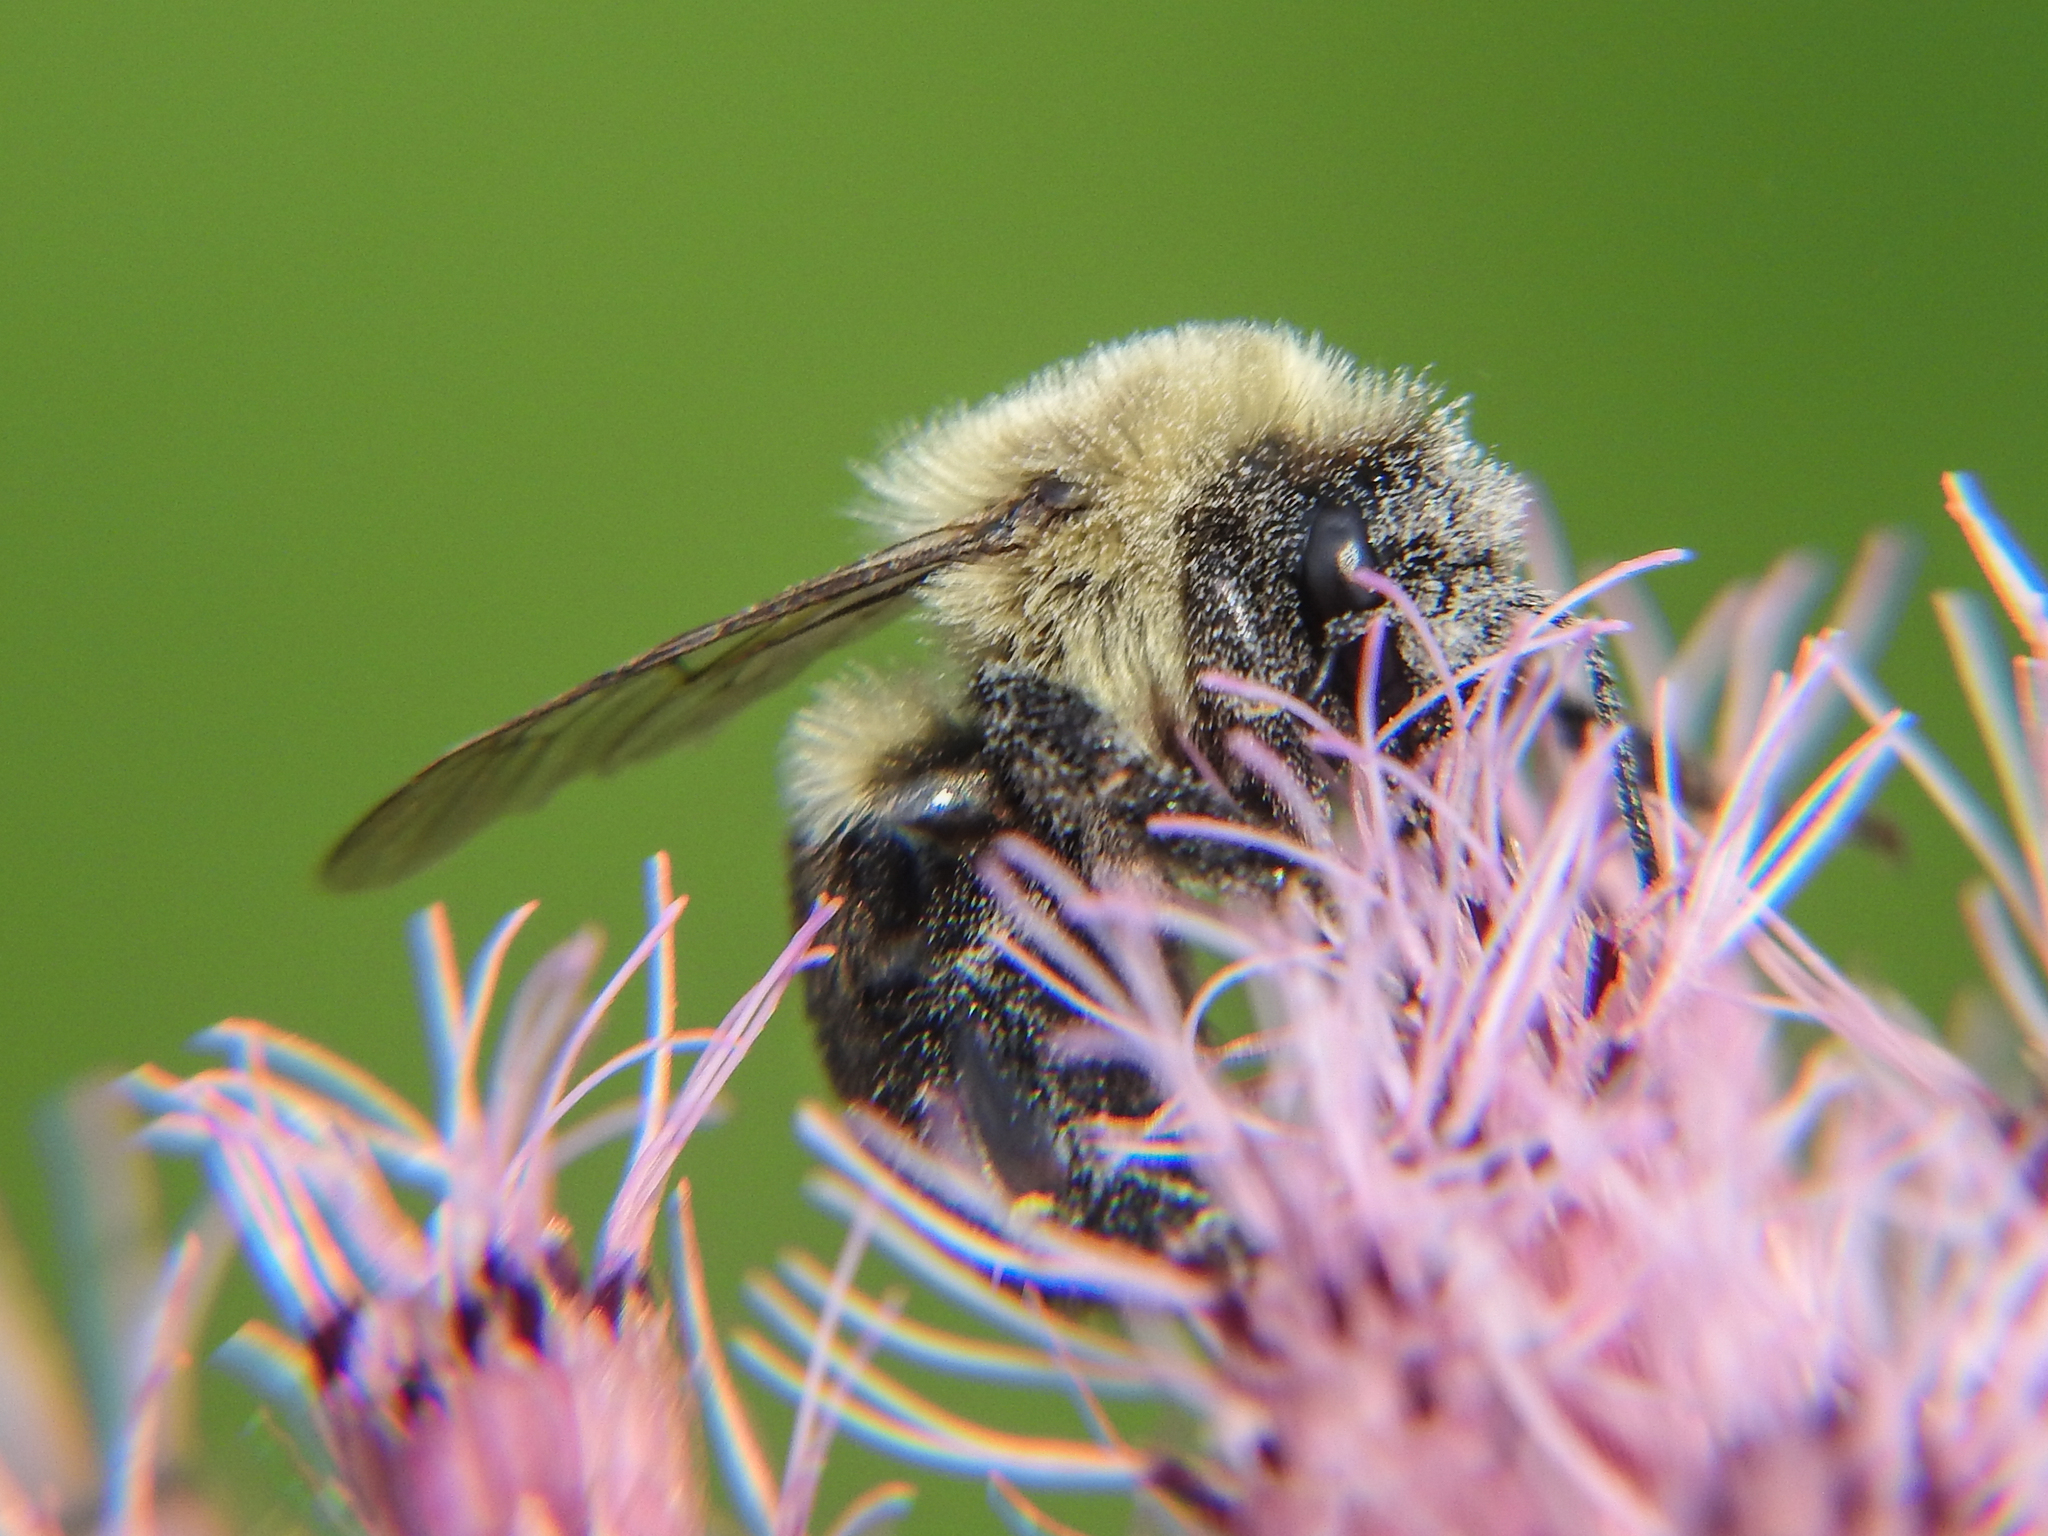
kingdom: Animalia
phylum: Arthropoda
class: Insecta
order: Hymenoptera
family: Apidae
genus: Bombus
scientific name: Bombus impatiens
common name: Common eastern bumble bee
